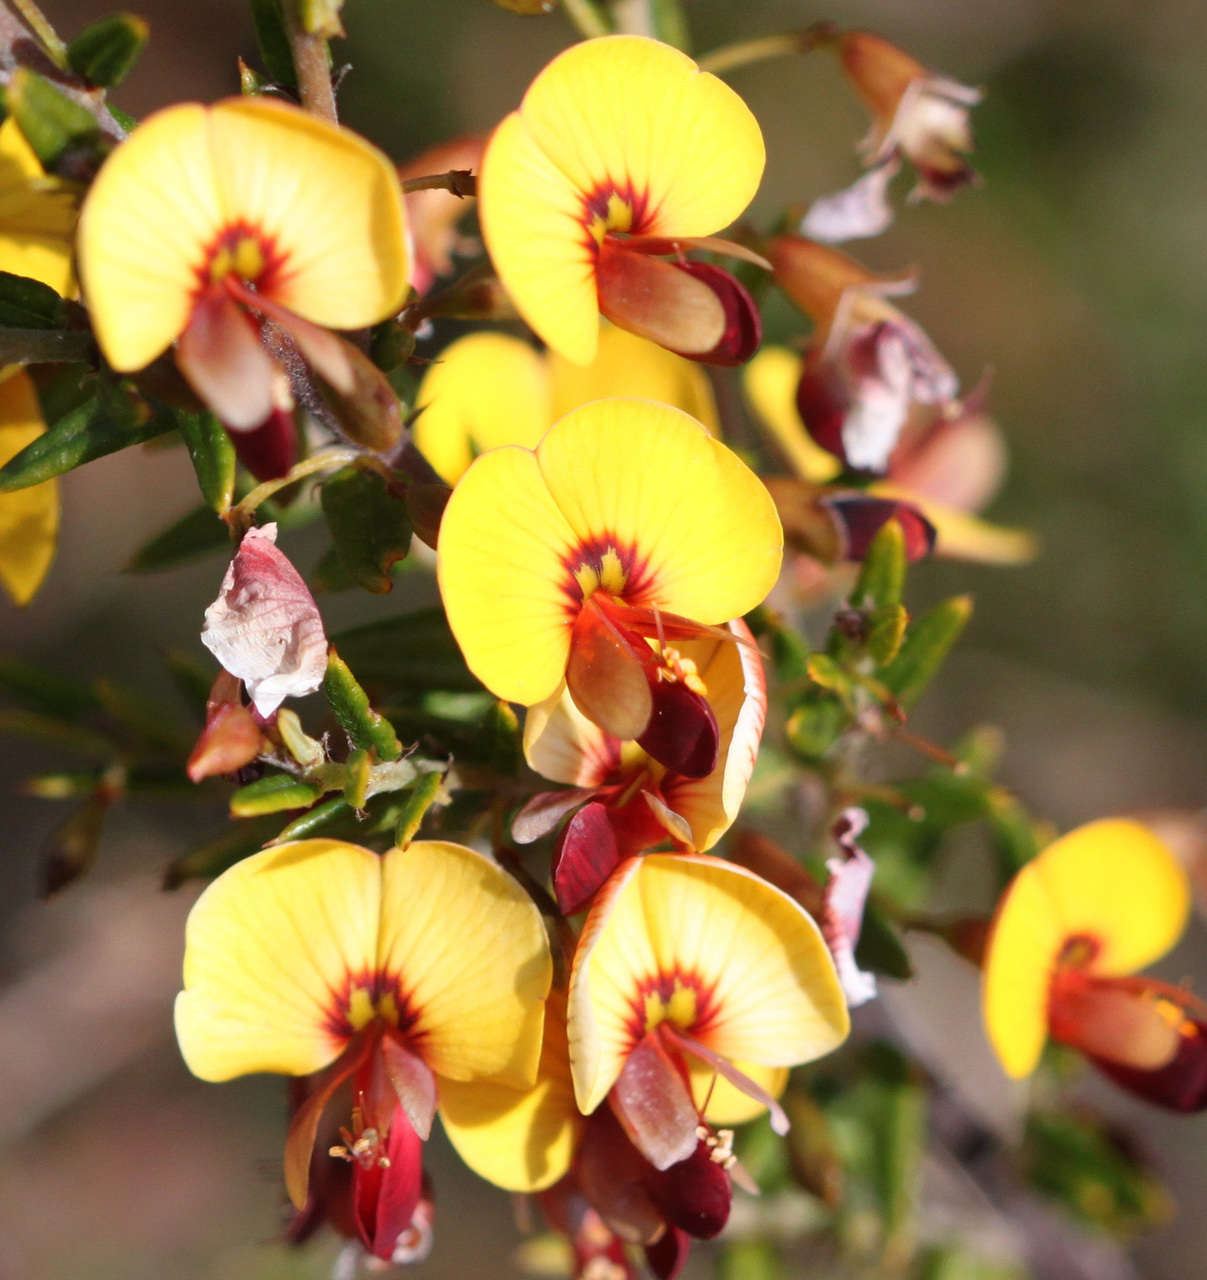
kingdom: Plantae
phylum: Tracheophyta
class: Magnoliopsida
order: Fabales
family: Fabaceae
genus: Bossiaea
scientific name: Bossiaea cinerea
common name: Showy bossiaea
